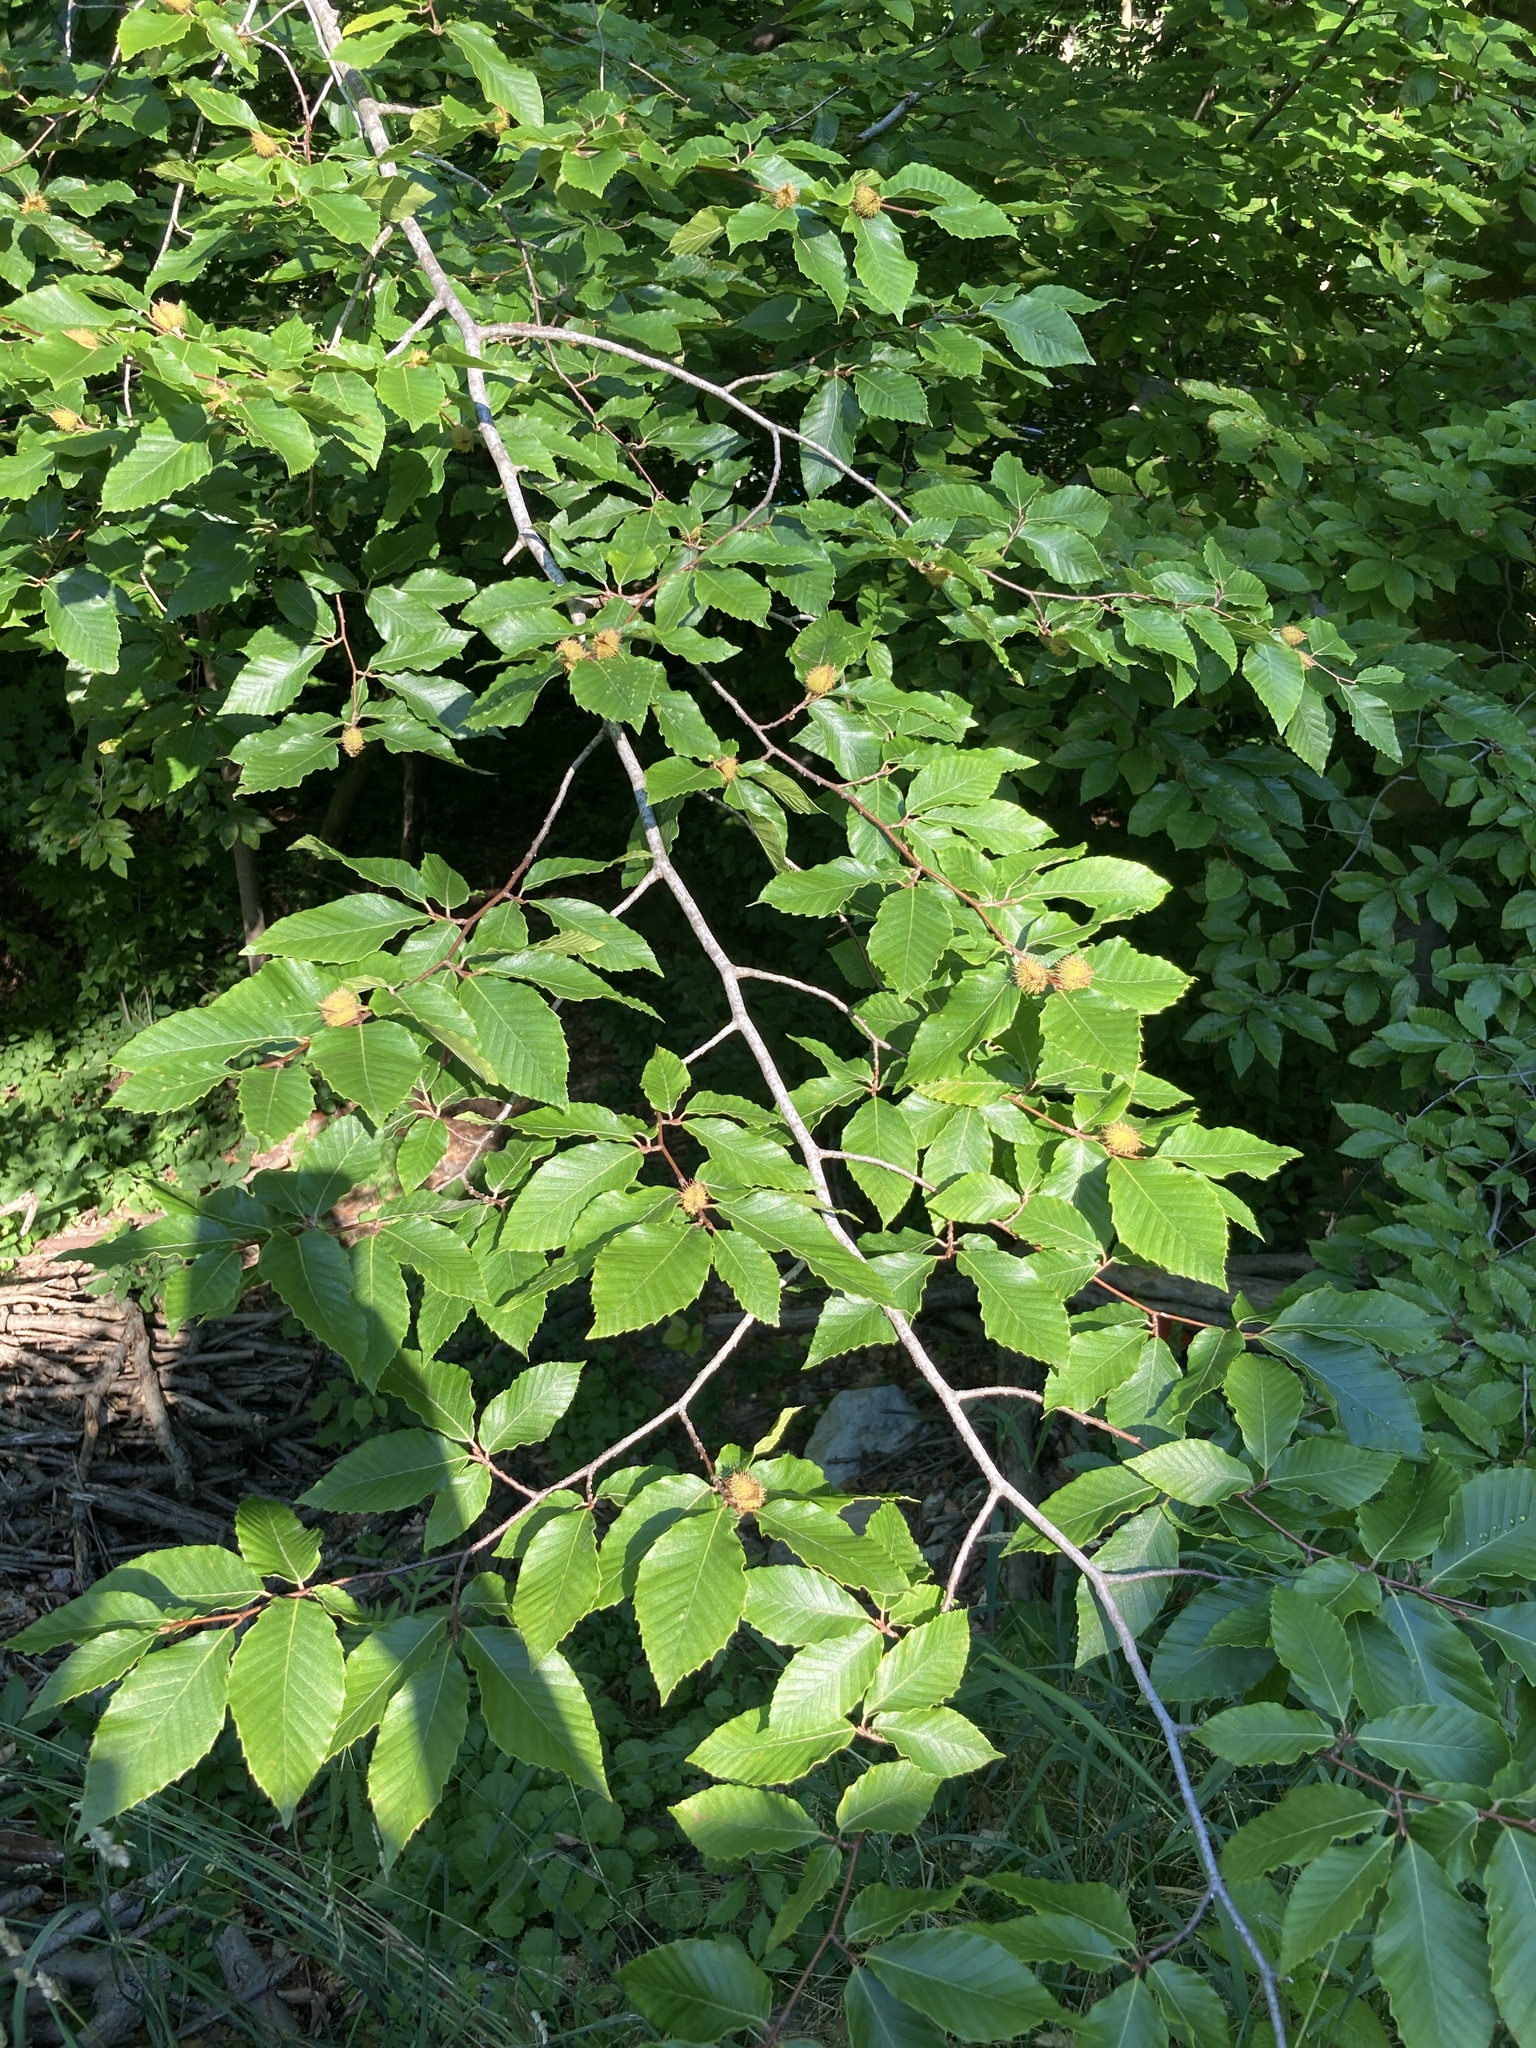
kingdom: Plantae
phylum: Tracheophyta
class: Magnoliopsida
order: Fagales
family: Fagaceae
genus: Fagus
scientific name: Fagus grandifolia
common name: American beech
